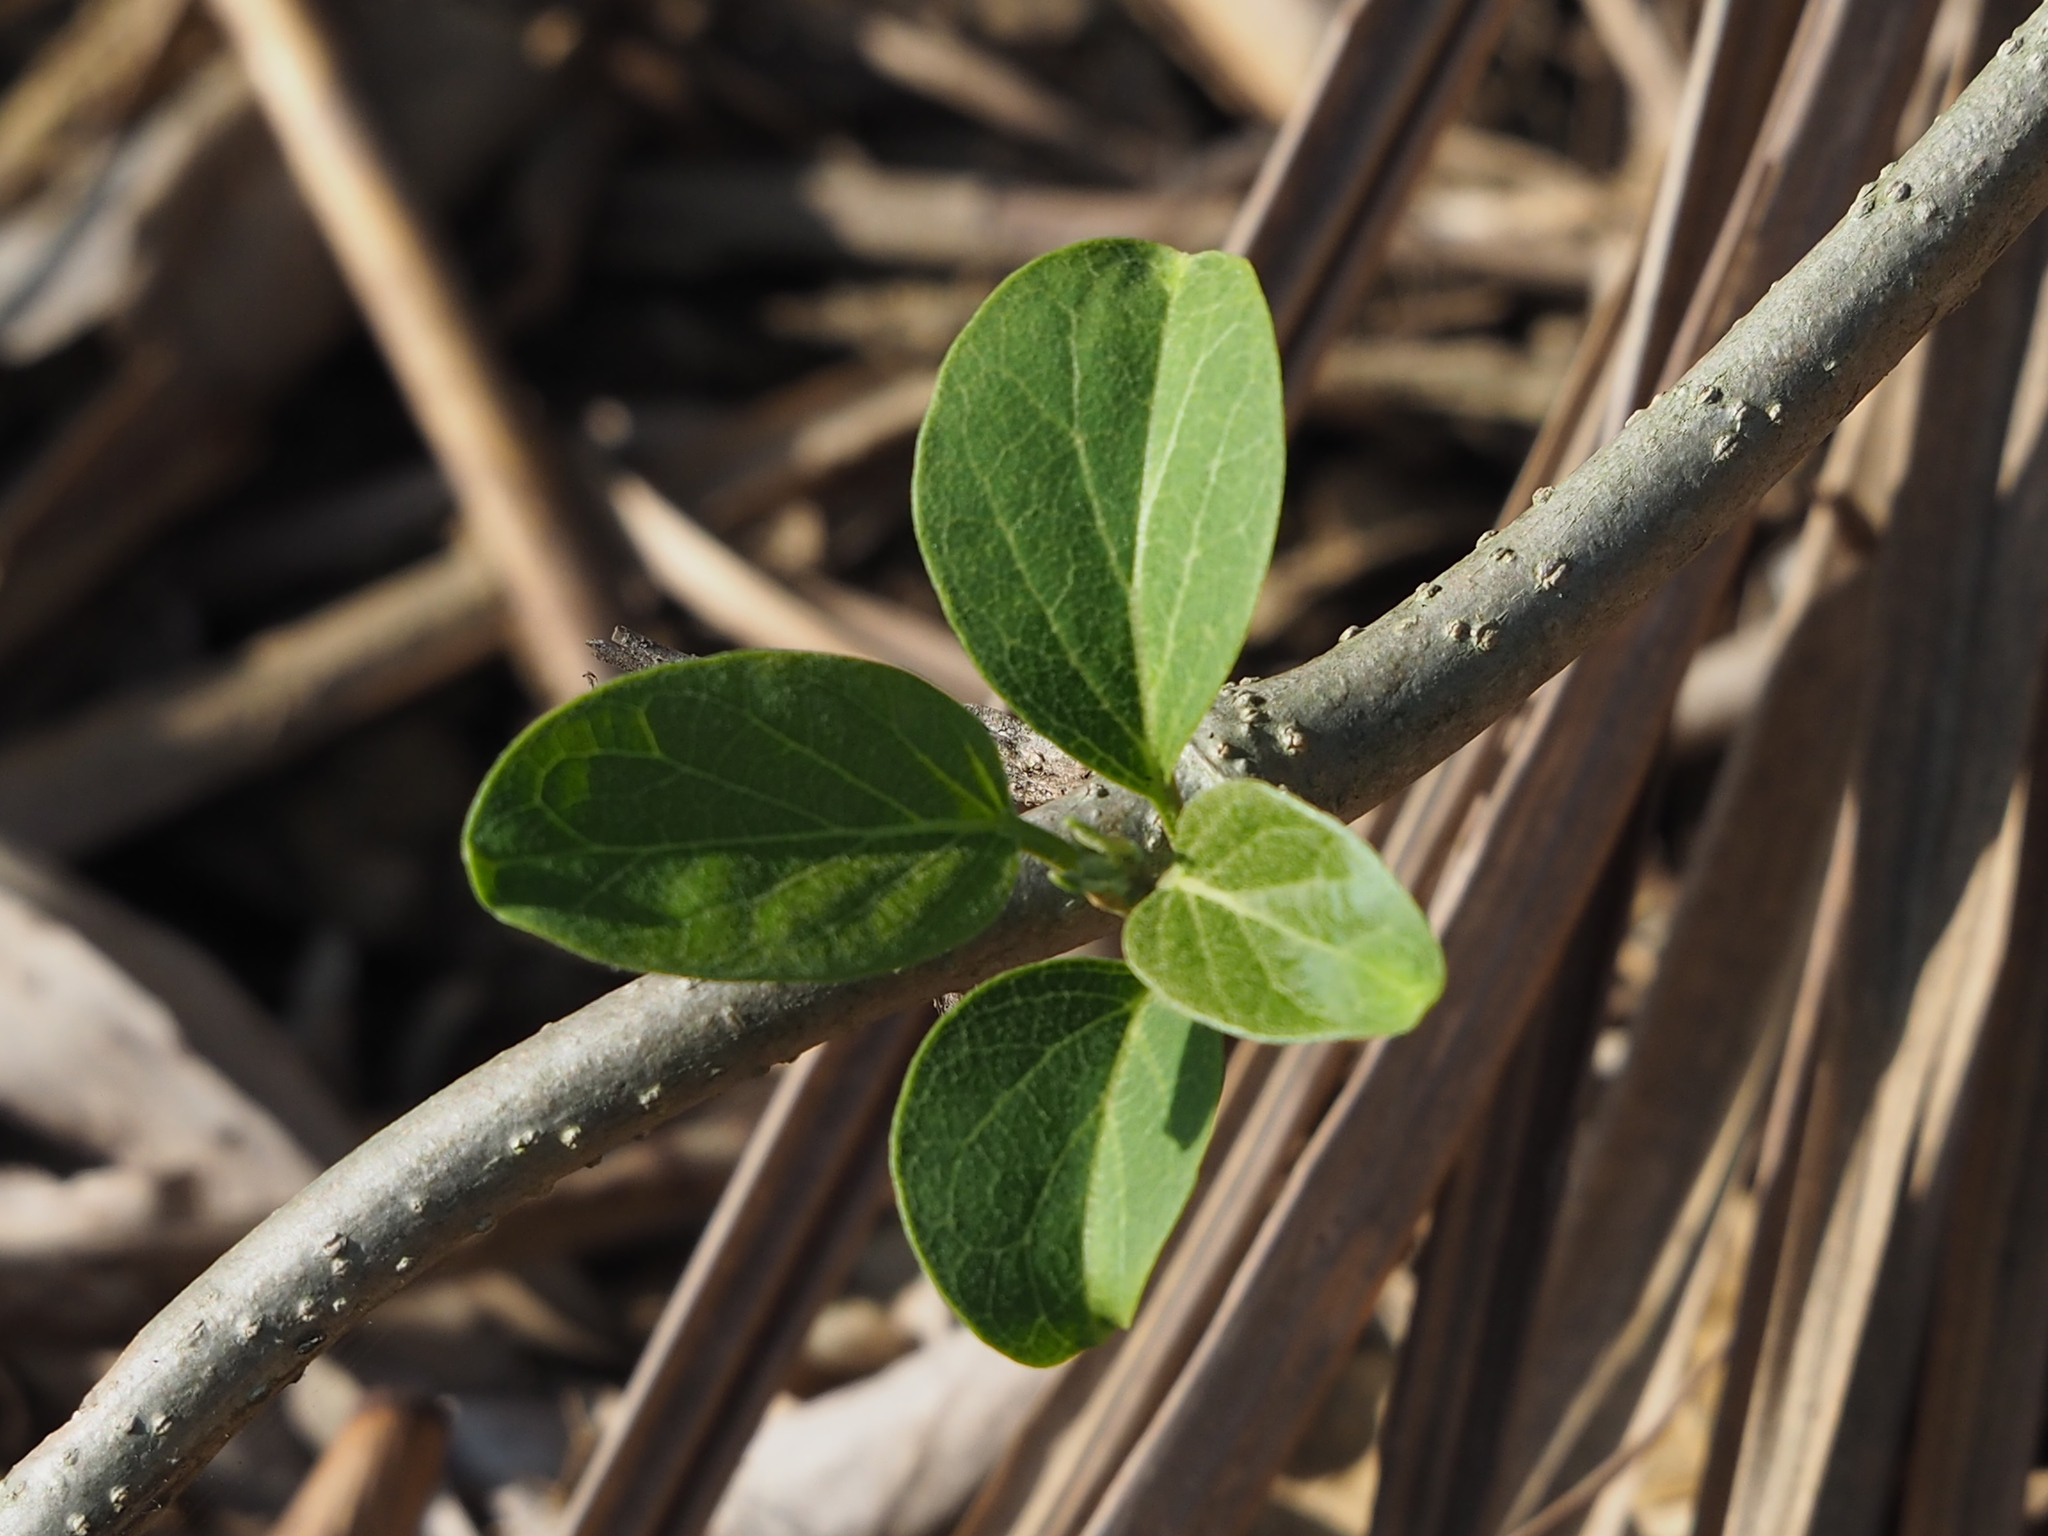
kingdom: Plantae
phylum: Tracheophyta
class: Magnoliopsida
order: Gentianales
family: Apocynaceae
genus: Stephanotis
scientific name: Stephanotis volubilis
